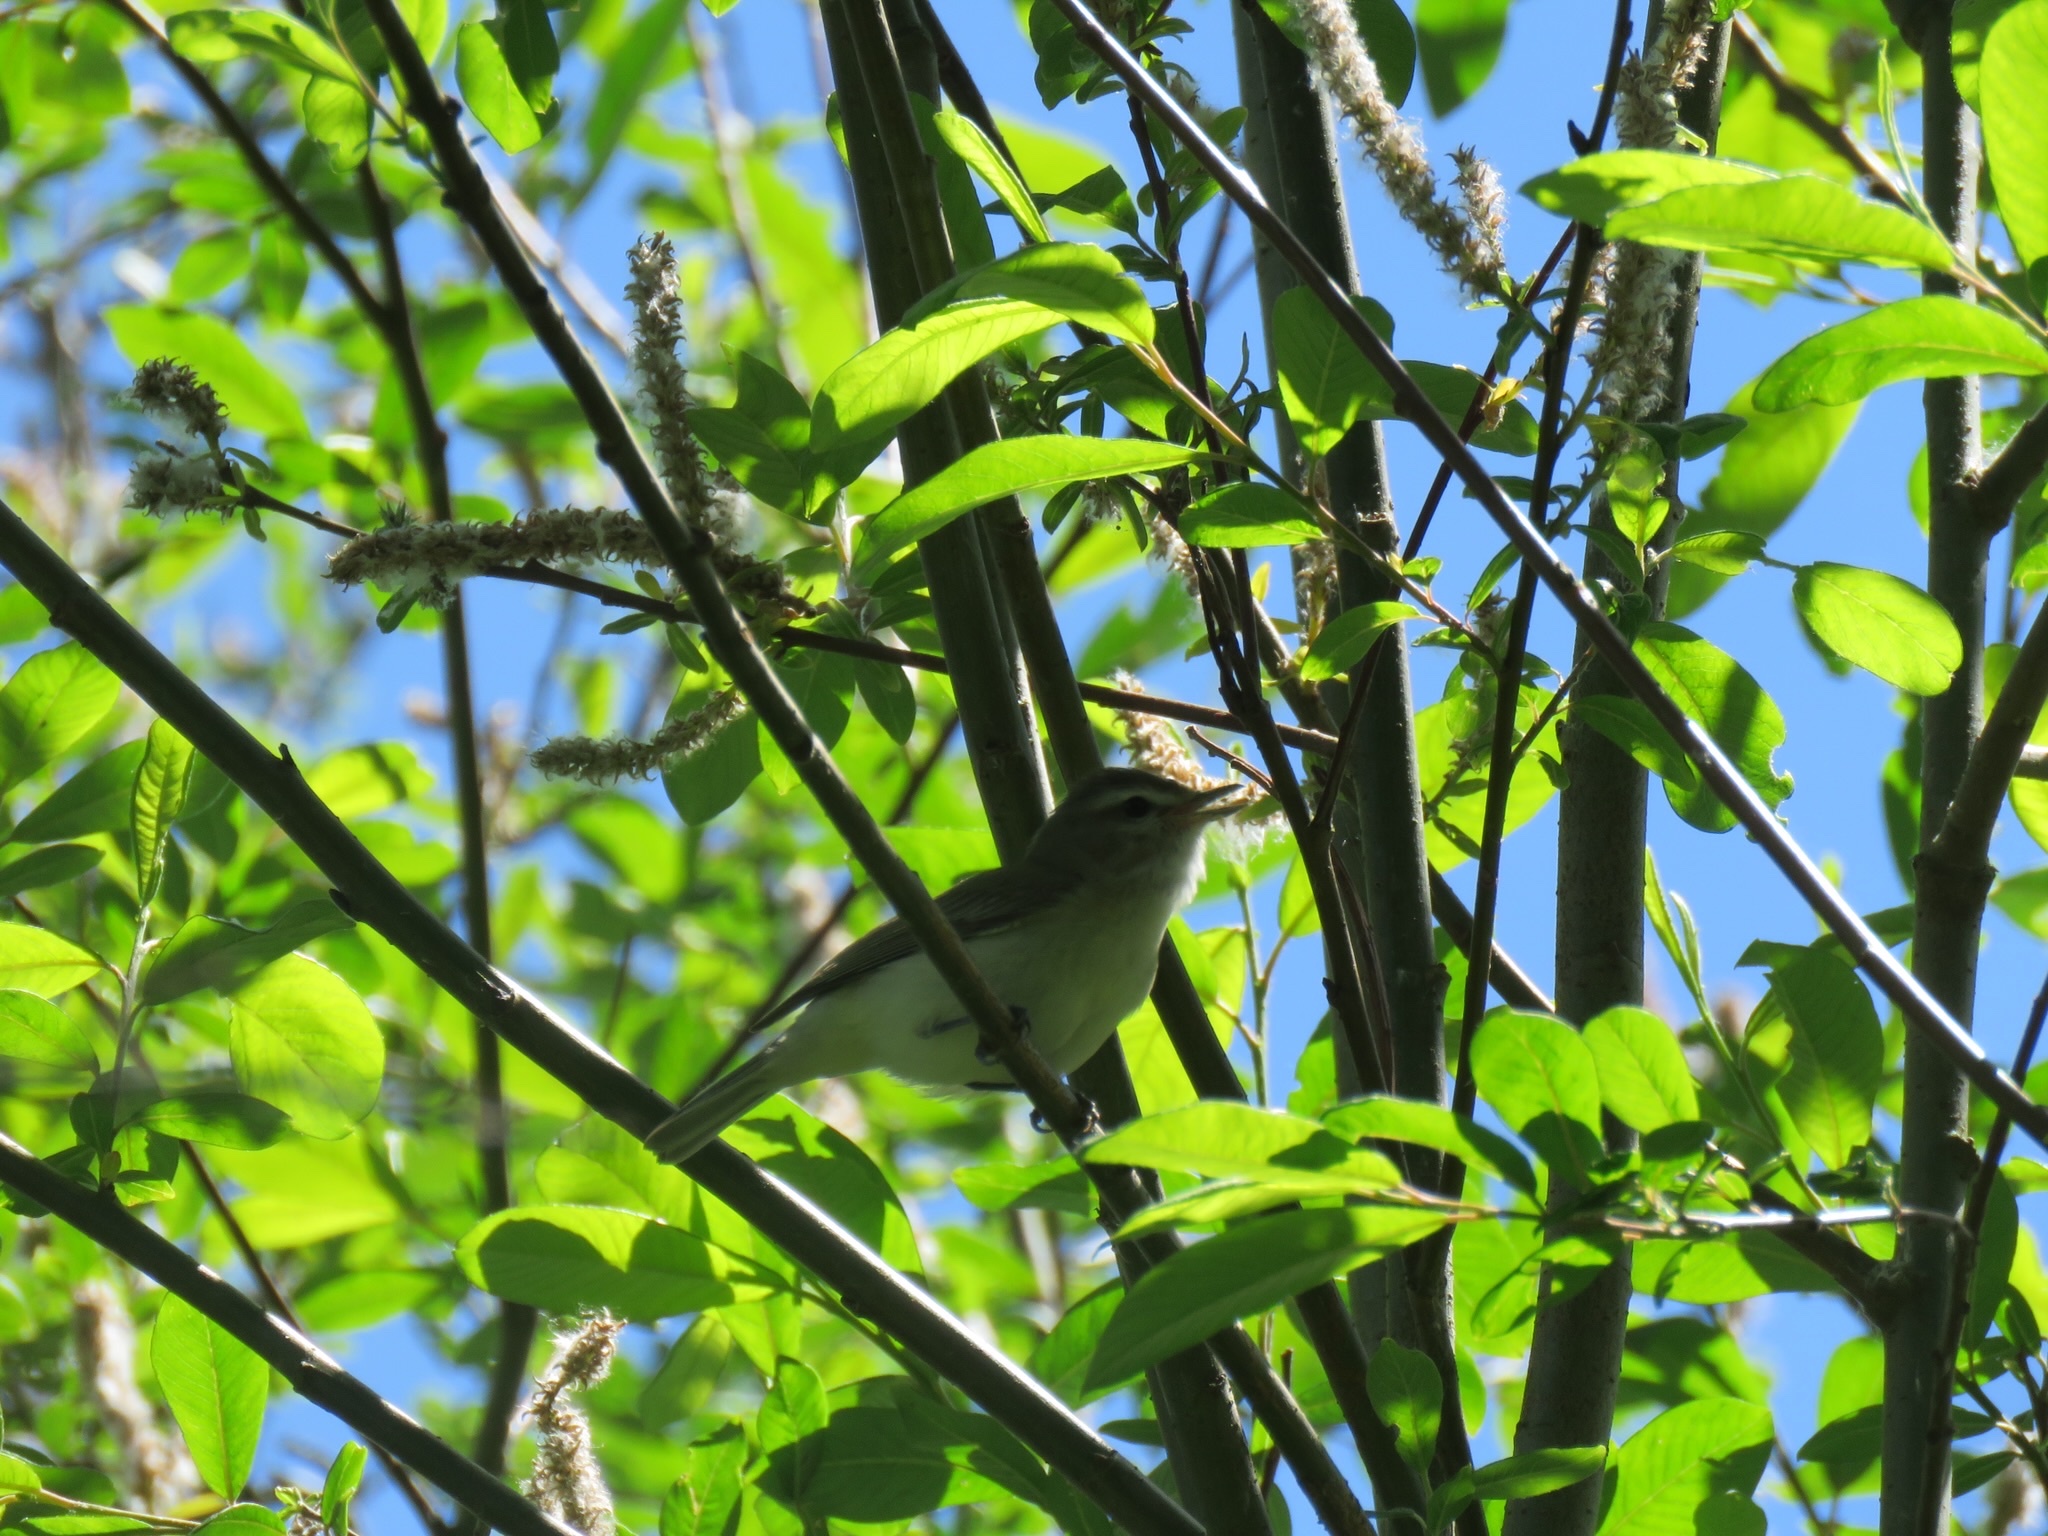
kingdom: Animalia
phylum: Chordata
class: Aves
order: Passeriformes
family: Vireonidae
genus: Vireo
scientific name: Vireo gilvus
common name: Warbling vireo
